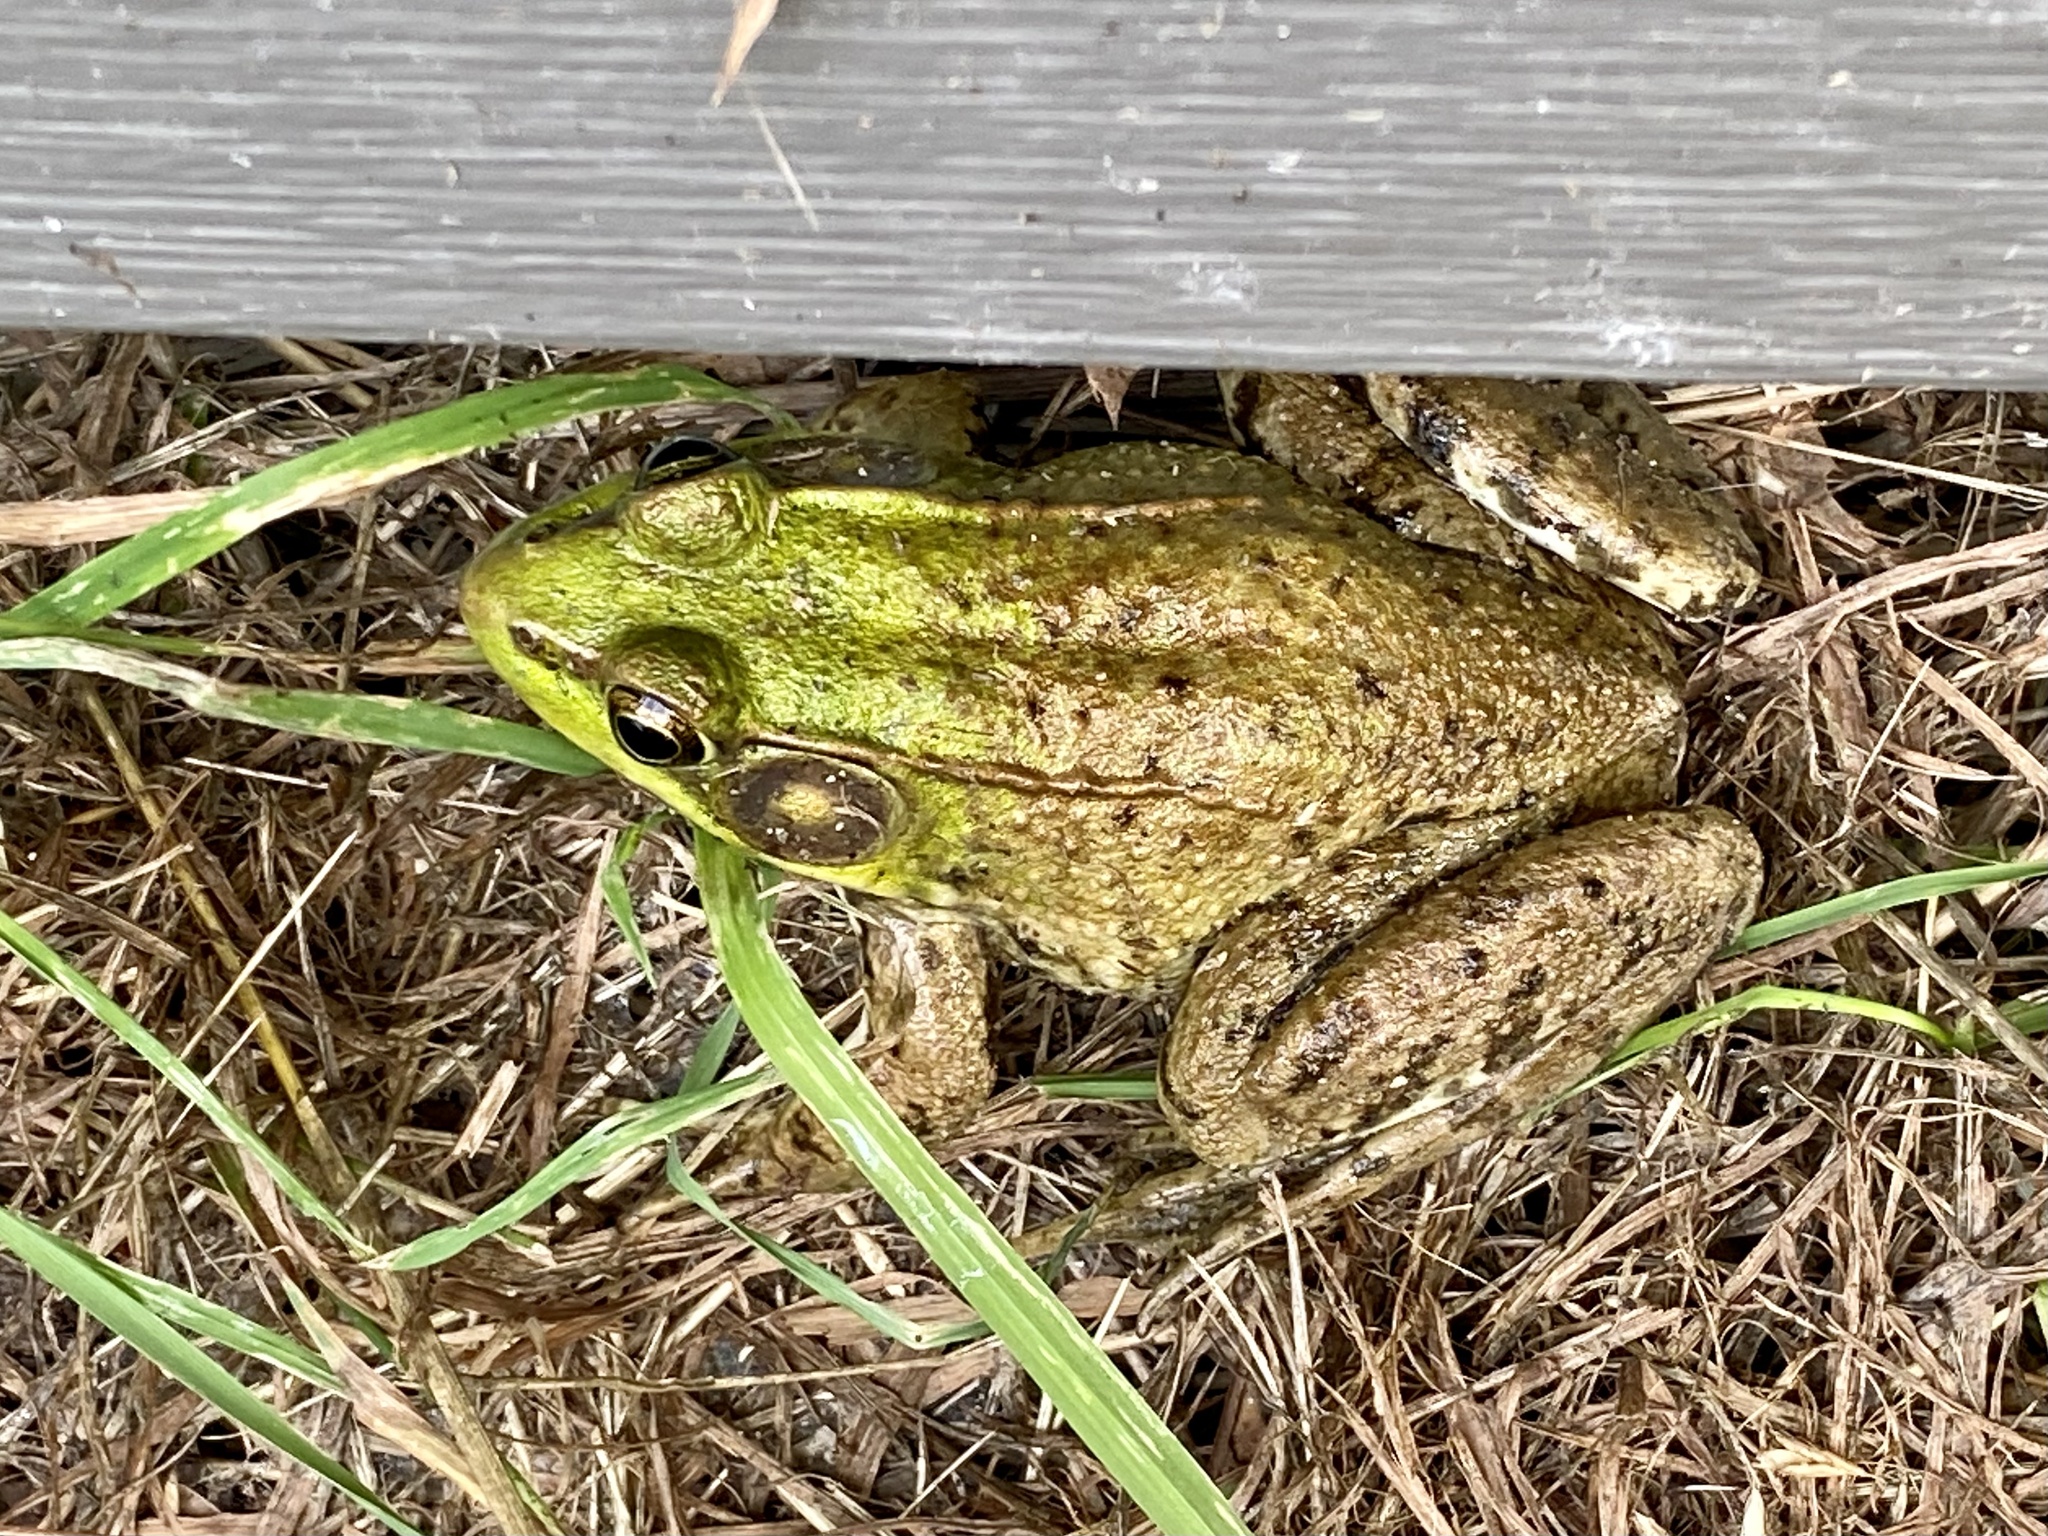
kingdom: Animalia
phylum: Chordata
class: Amphibia
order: Anura
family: Ranidae
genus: Lithobates
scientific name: Lithobates clamitans
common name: Green frog
